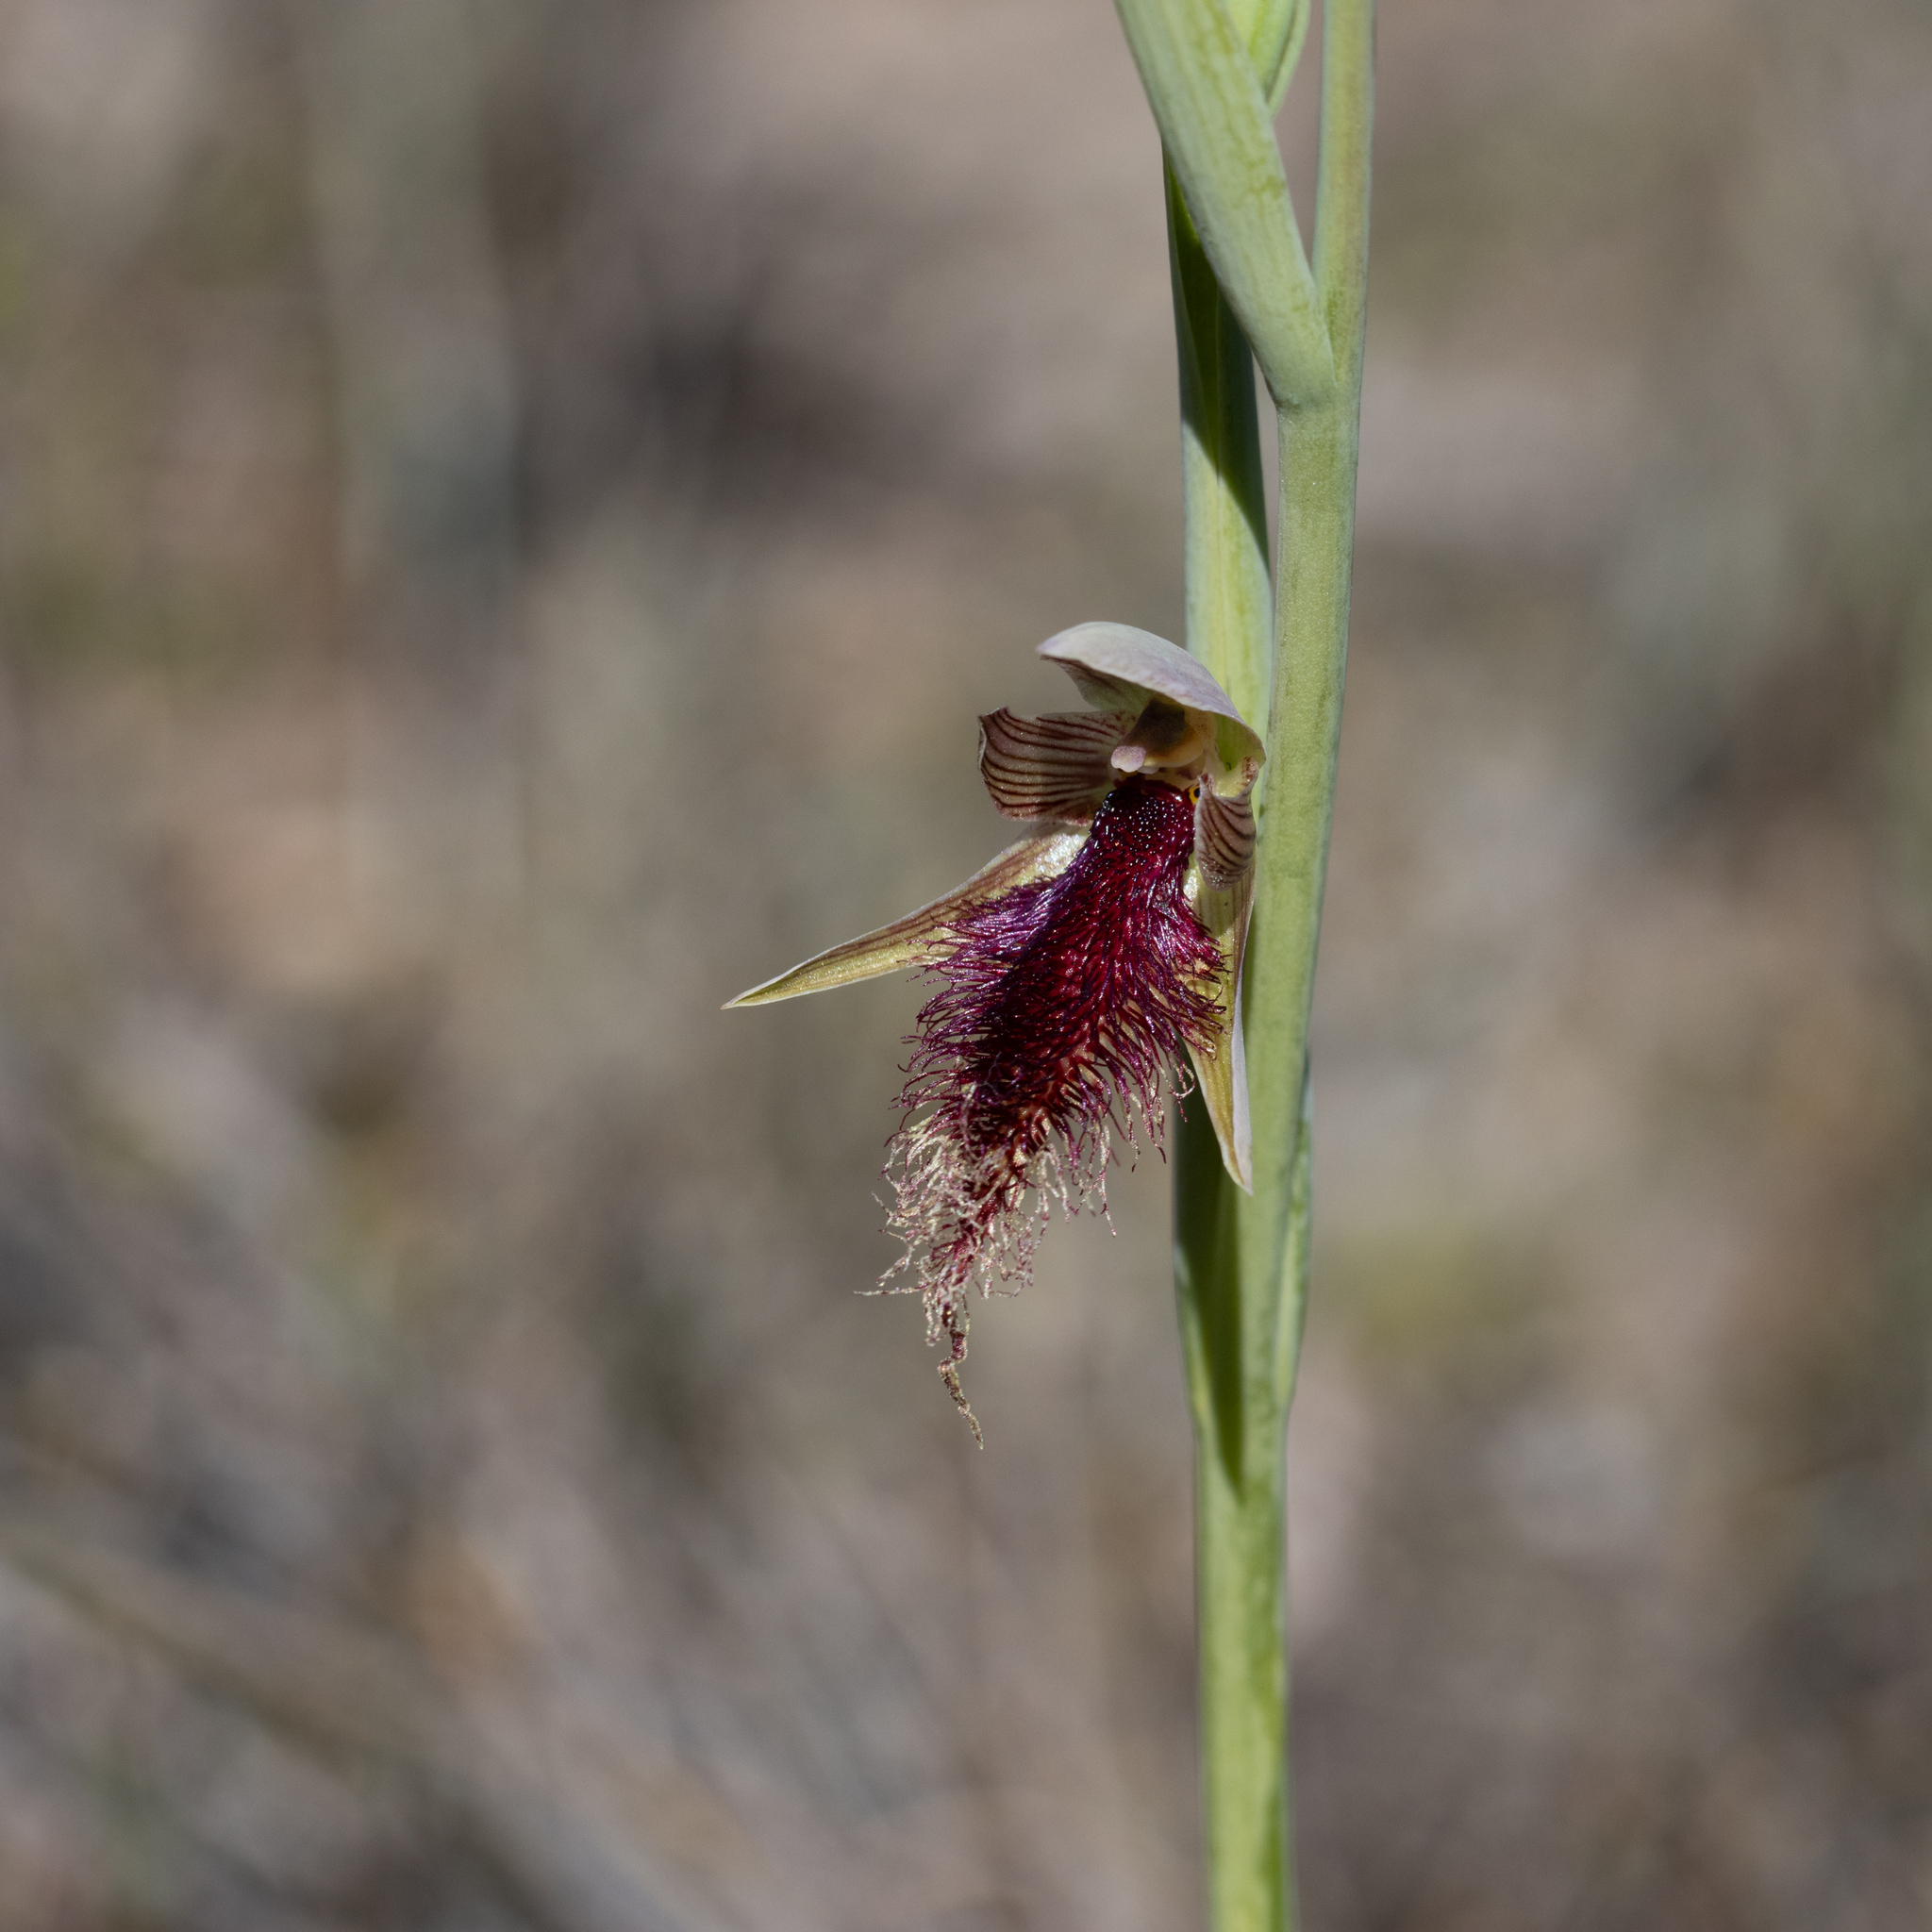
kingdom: Plantae
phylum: Tracheophyta
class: Liliopsida
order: Asparagales
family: Orchidaceae
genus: Calochilus
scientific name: Calochilus robertsonii
